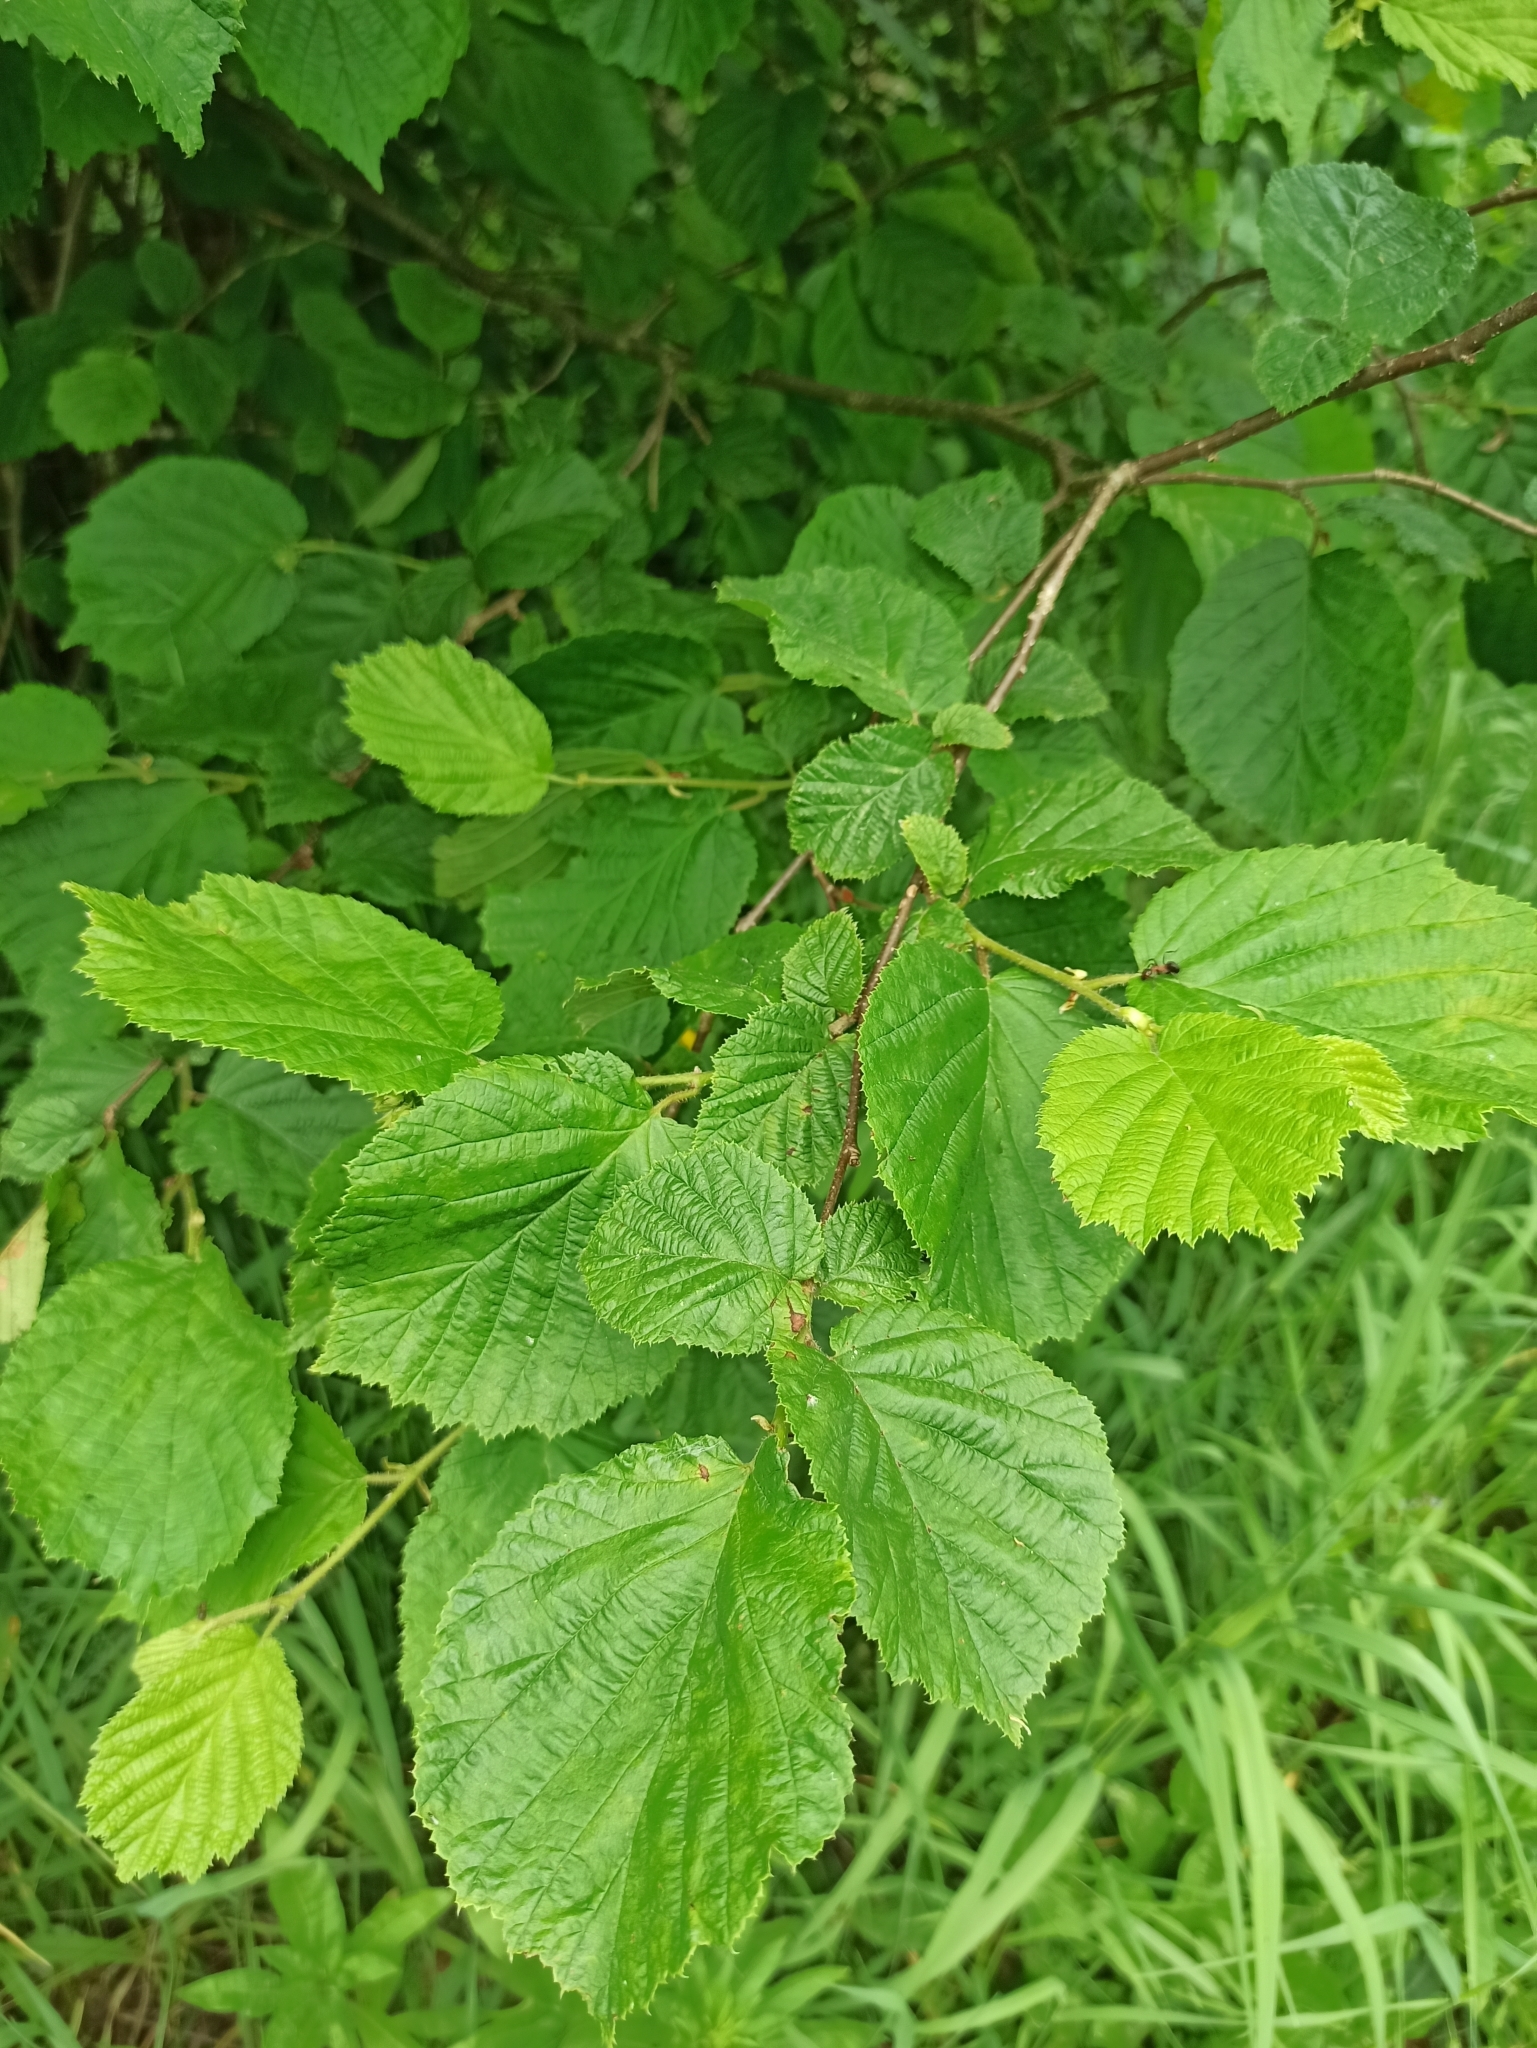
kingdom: Plantae
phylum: Tracheophyta
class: Magnoliopsida
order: Fagales
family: Betulaceae
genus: Corylus
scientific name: Corylus avellana
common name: European hazel
